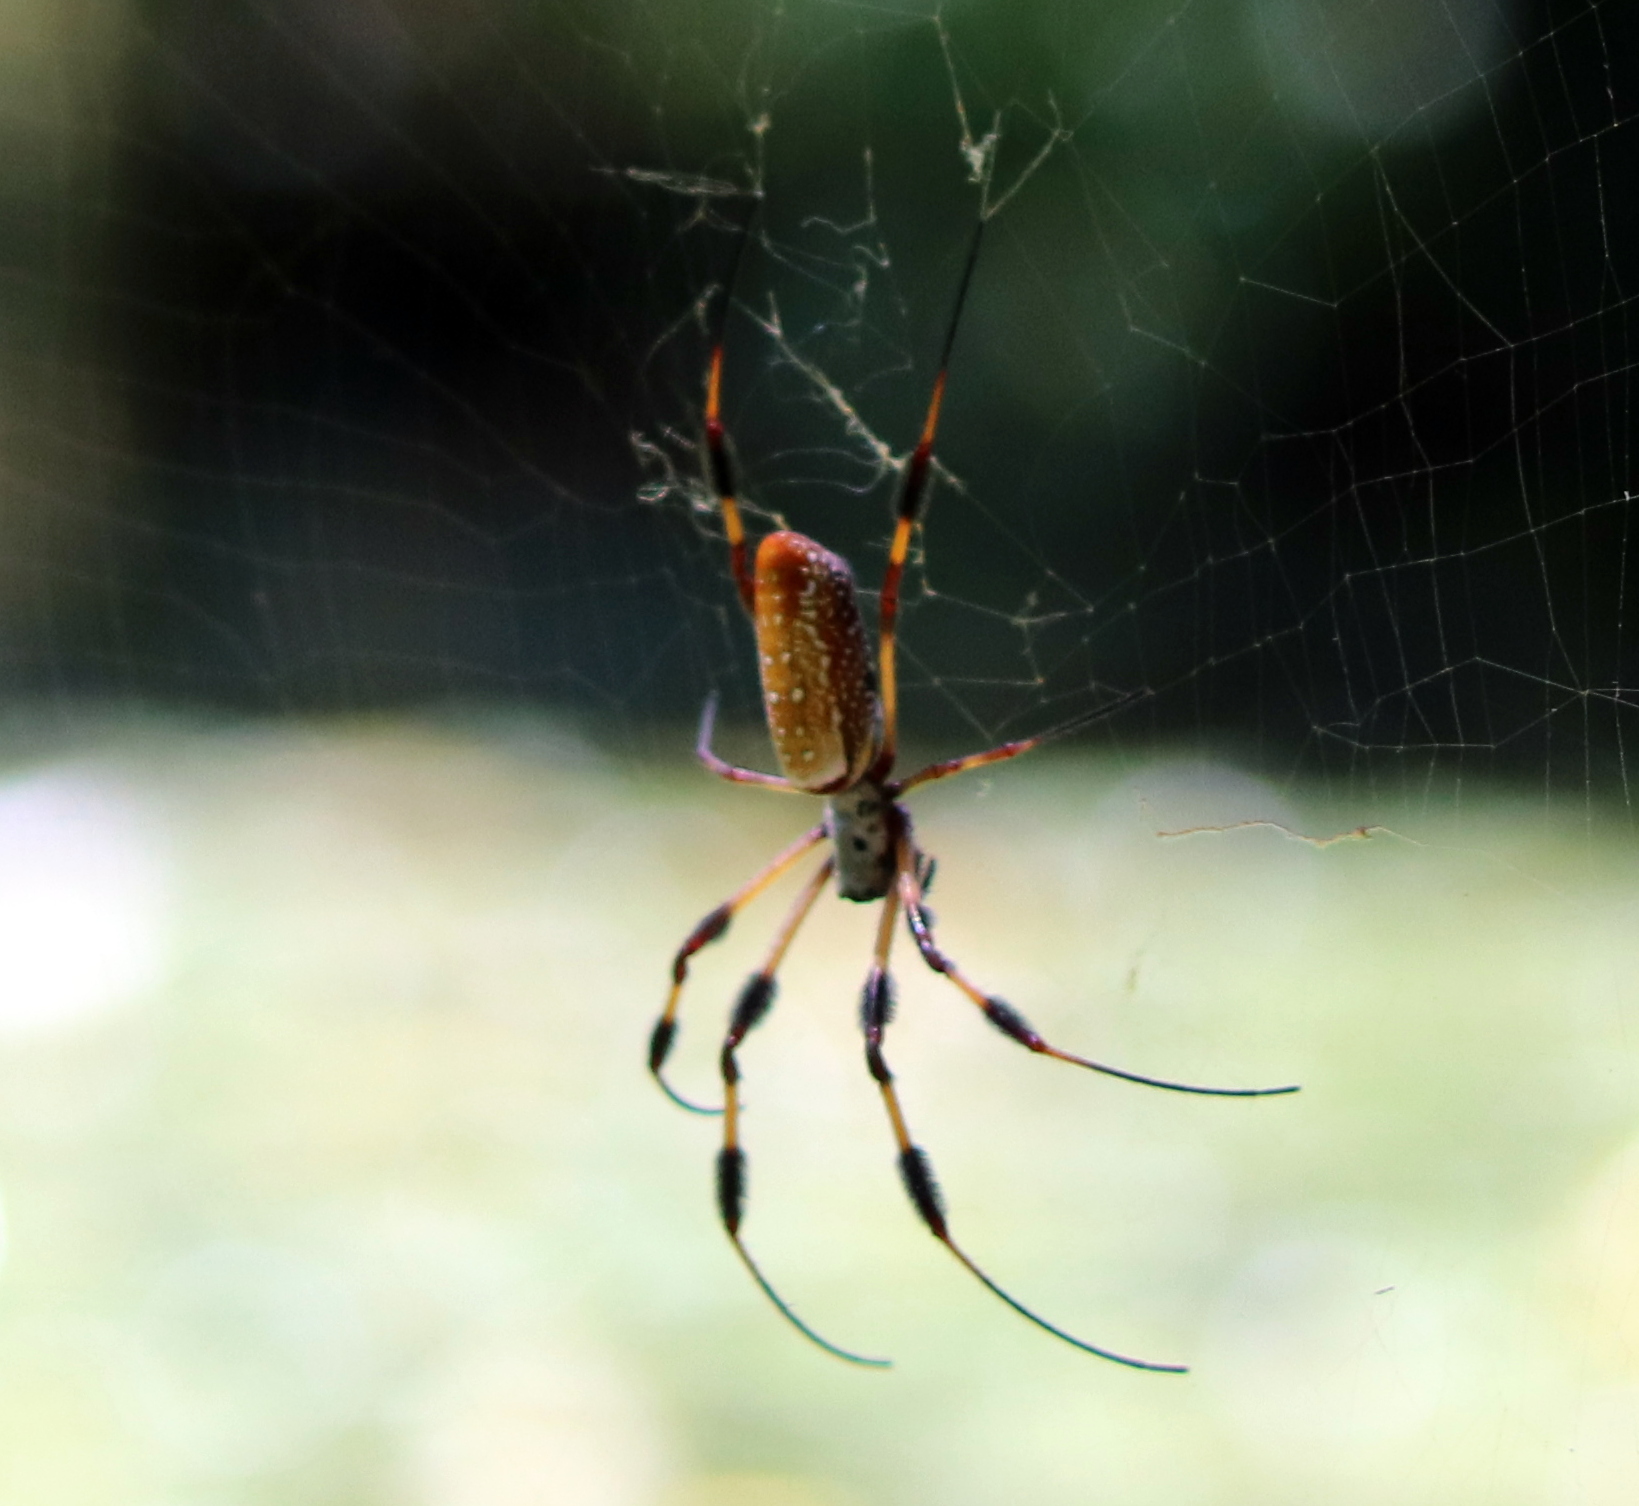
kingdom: Animalia
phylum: Arthropoda
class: Arachnida
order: Araneae
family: Araneidae
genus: Trichonephila
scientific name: Trichonephila clavipes
